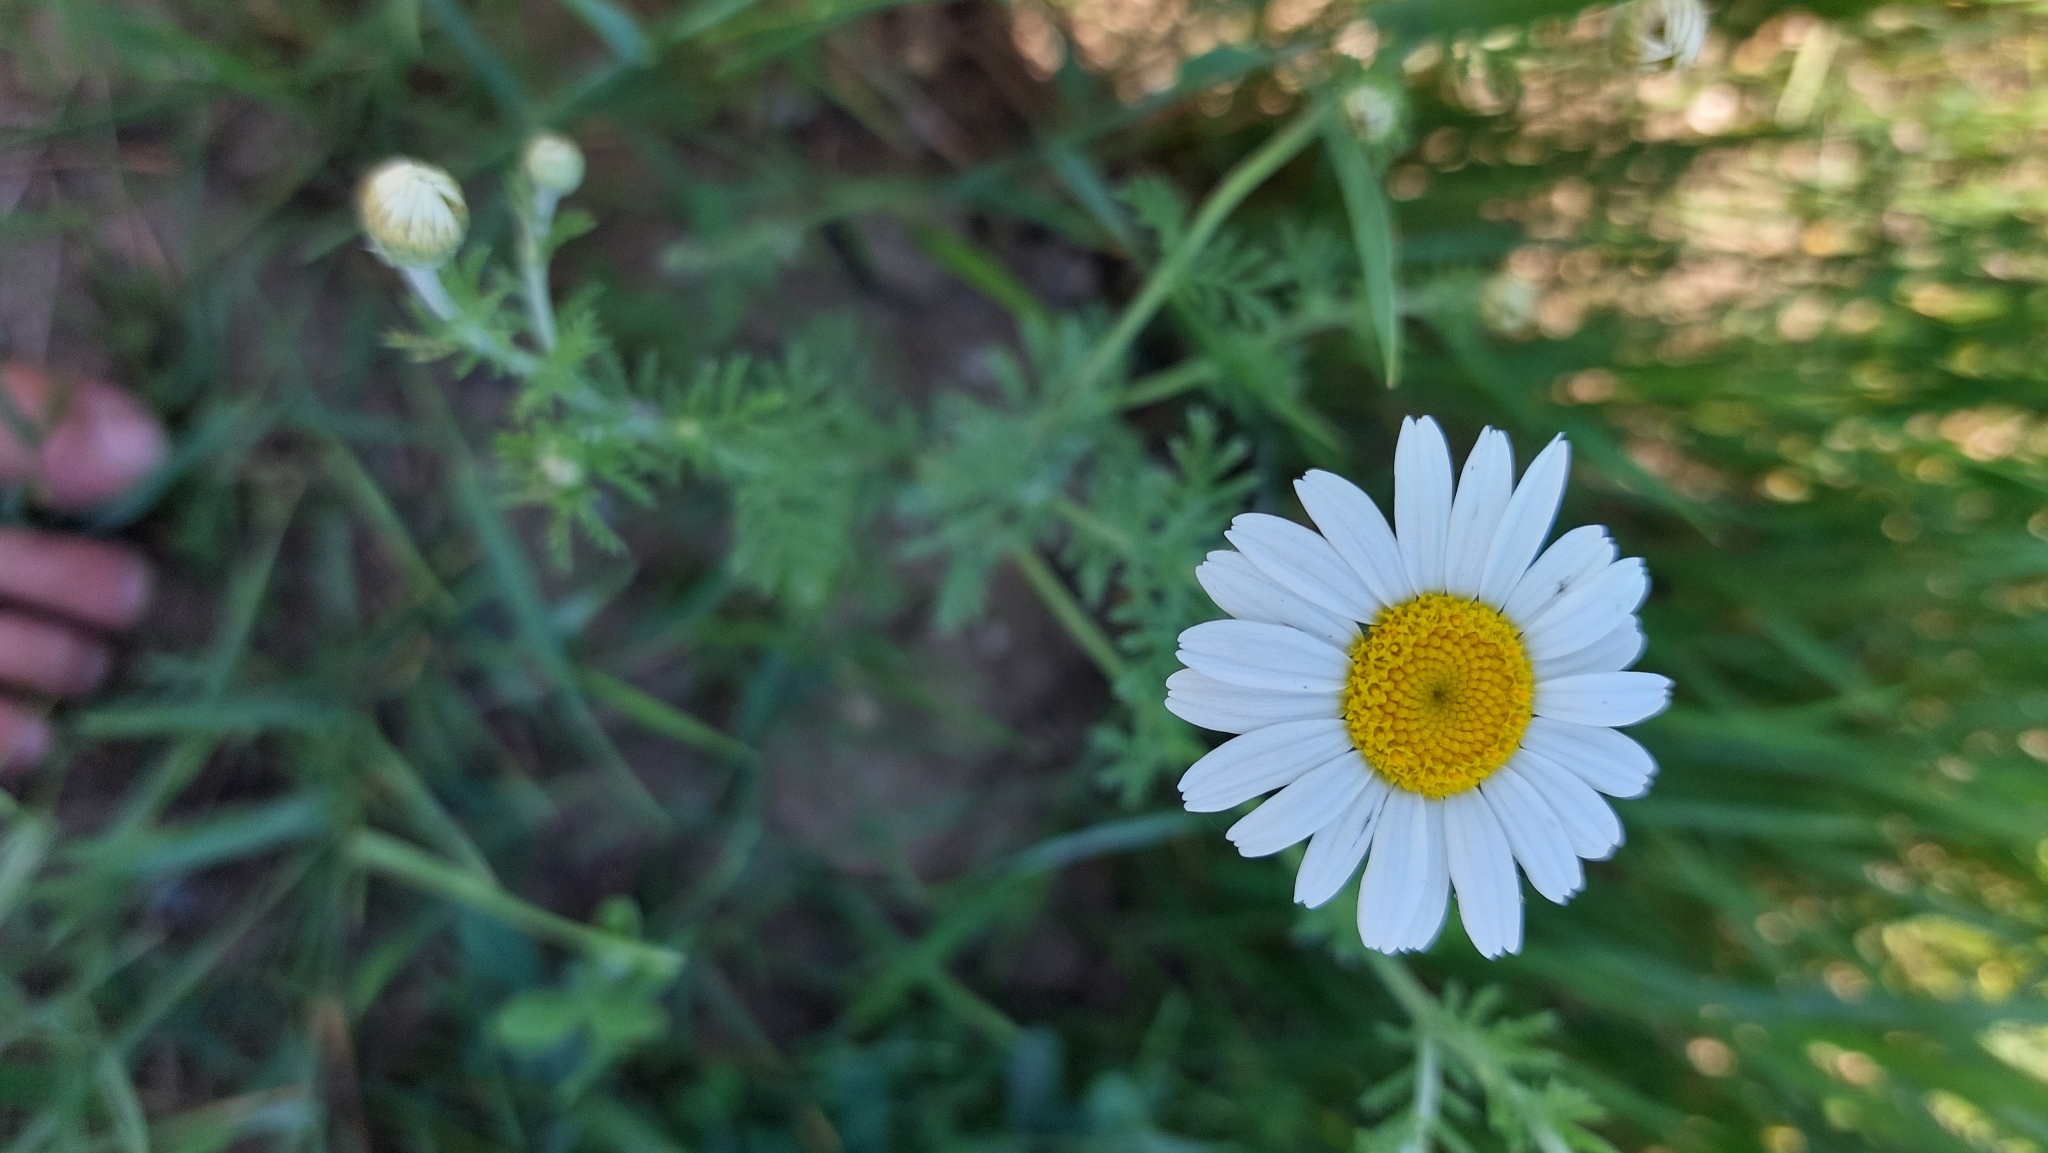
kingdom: Plantae
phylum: Tracheophyta
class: Magnoliopsida
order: Asterales
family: Asteraceae
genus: Cota
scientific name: Cota austriaca
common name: Austrian chamomile
